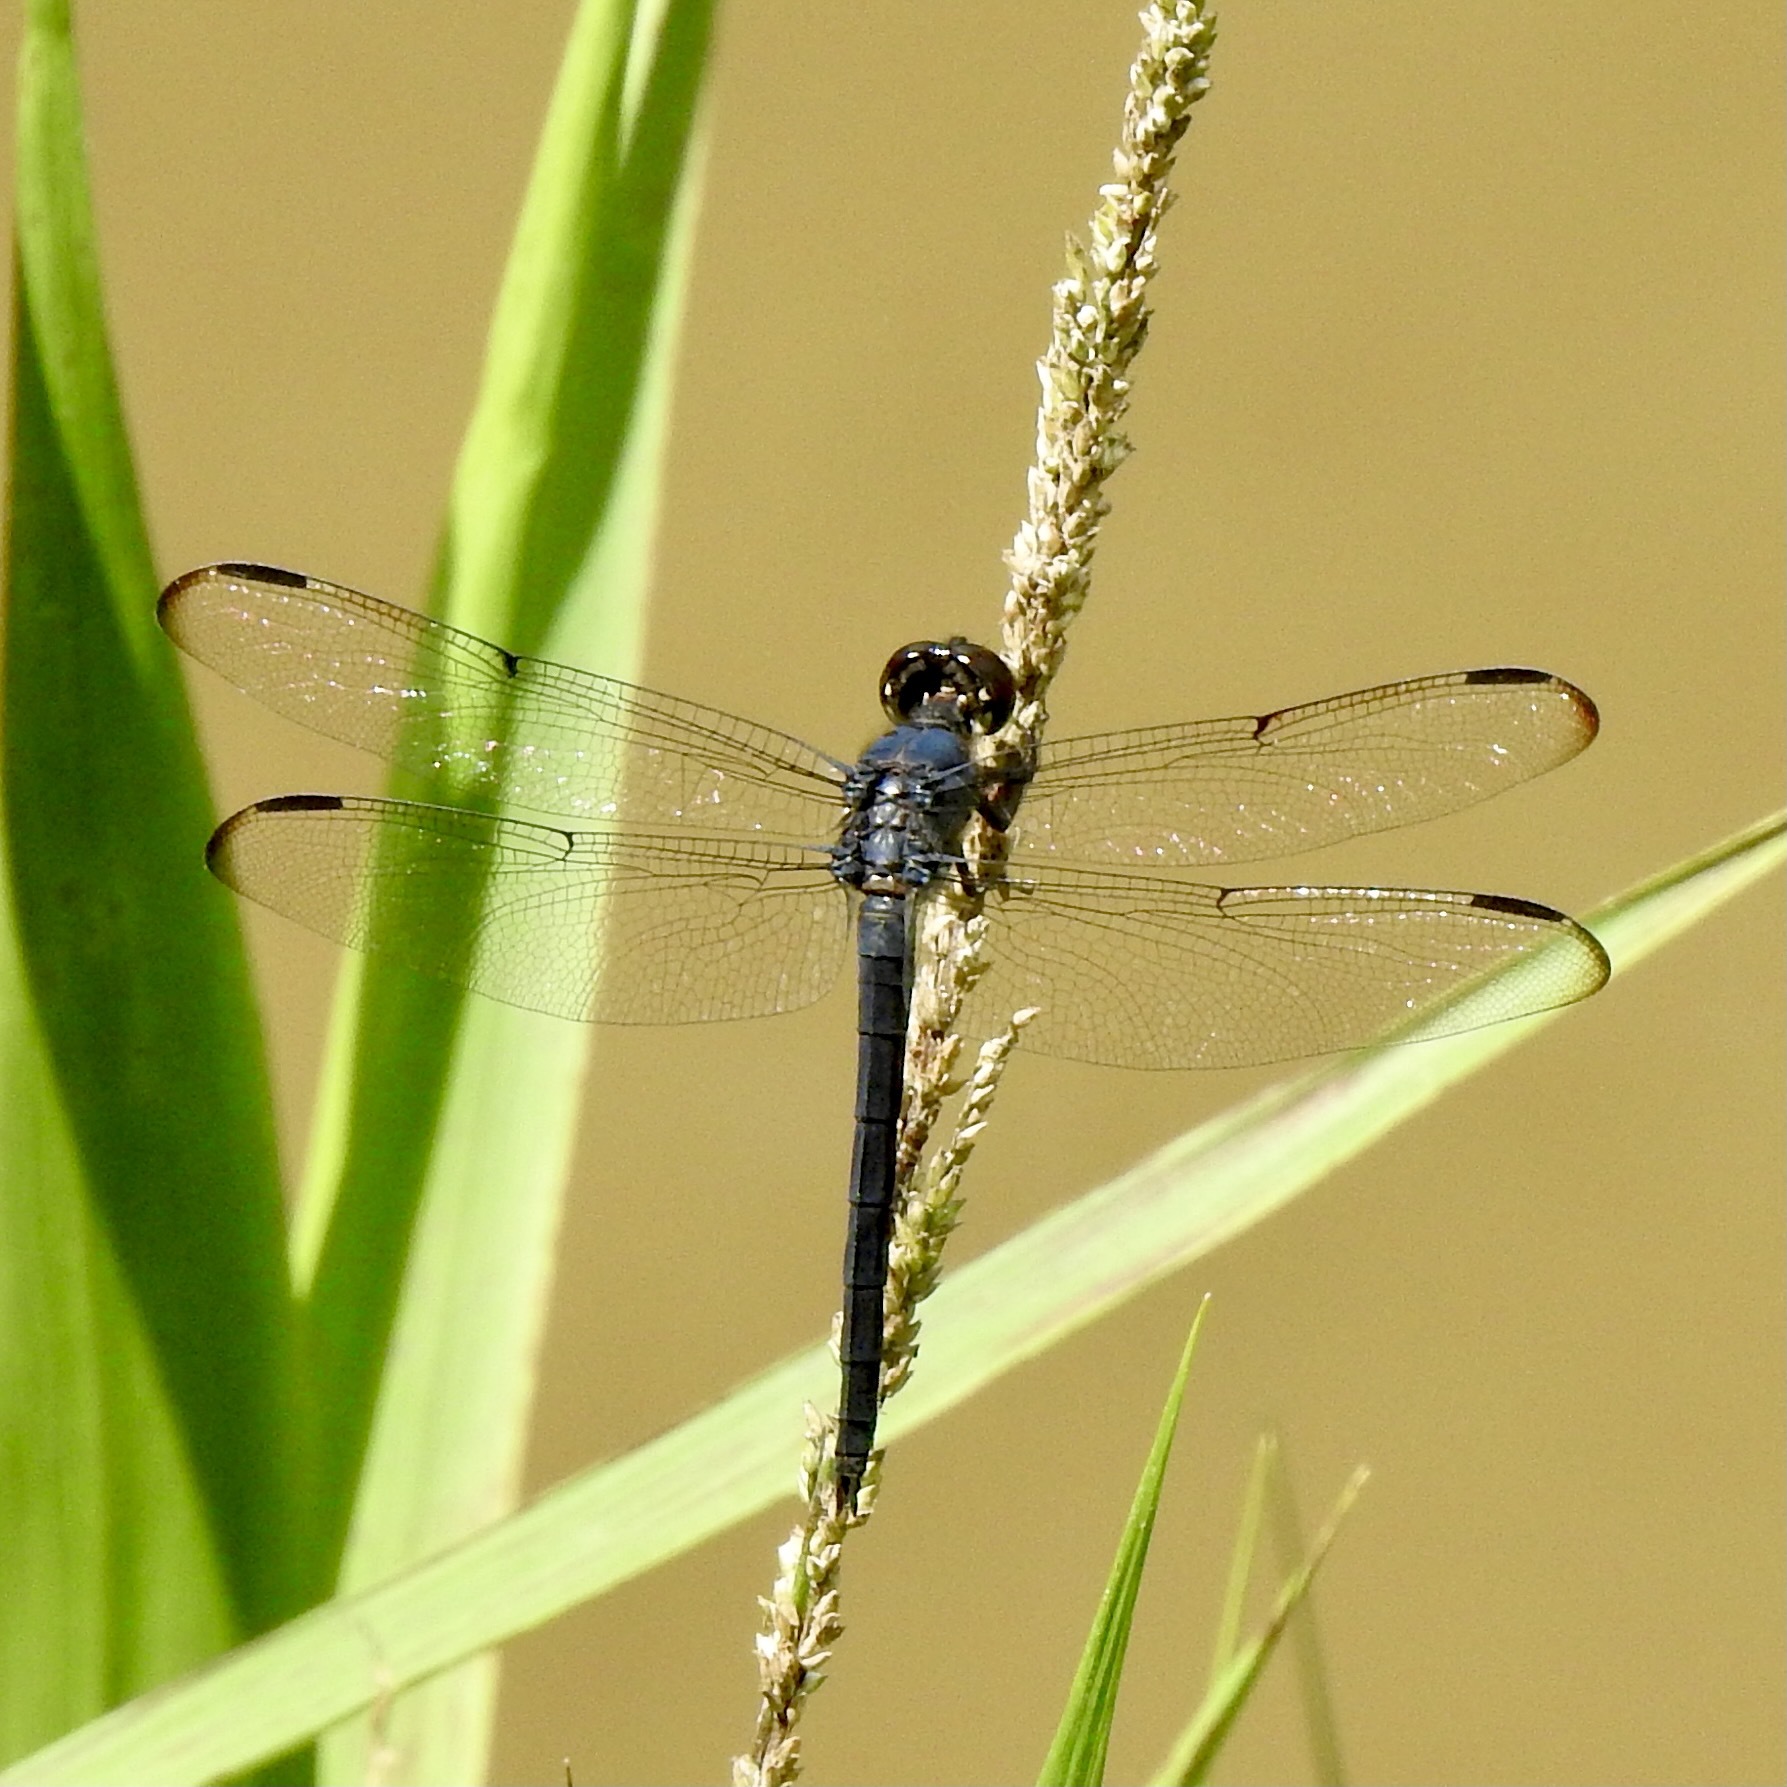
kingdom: Animalia
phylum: Arthropoda
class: Insecta
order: Odonata
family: Libellulidae
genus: Libellula
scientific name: Libellula incesta
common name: Slaty skimmer
